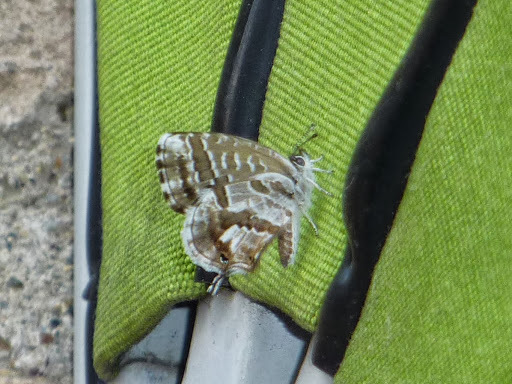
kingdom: Animalia
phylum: Arthropoda
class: Insecta
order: Lepidoptera
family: Lycaenidae
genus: Cacyreus
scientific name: Cacyreus marshalli
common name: Geranium bronze
